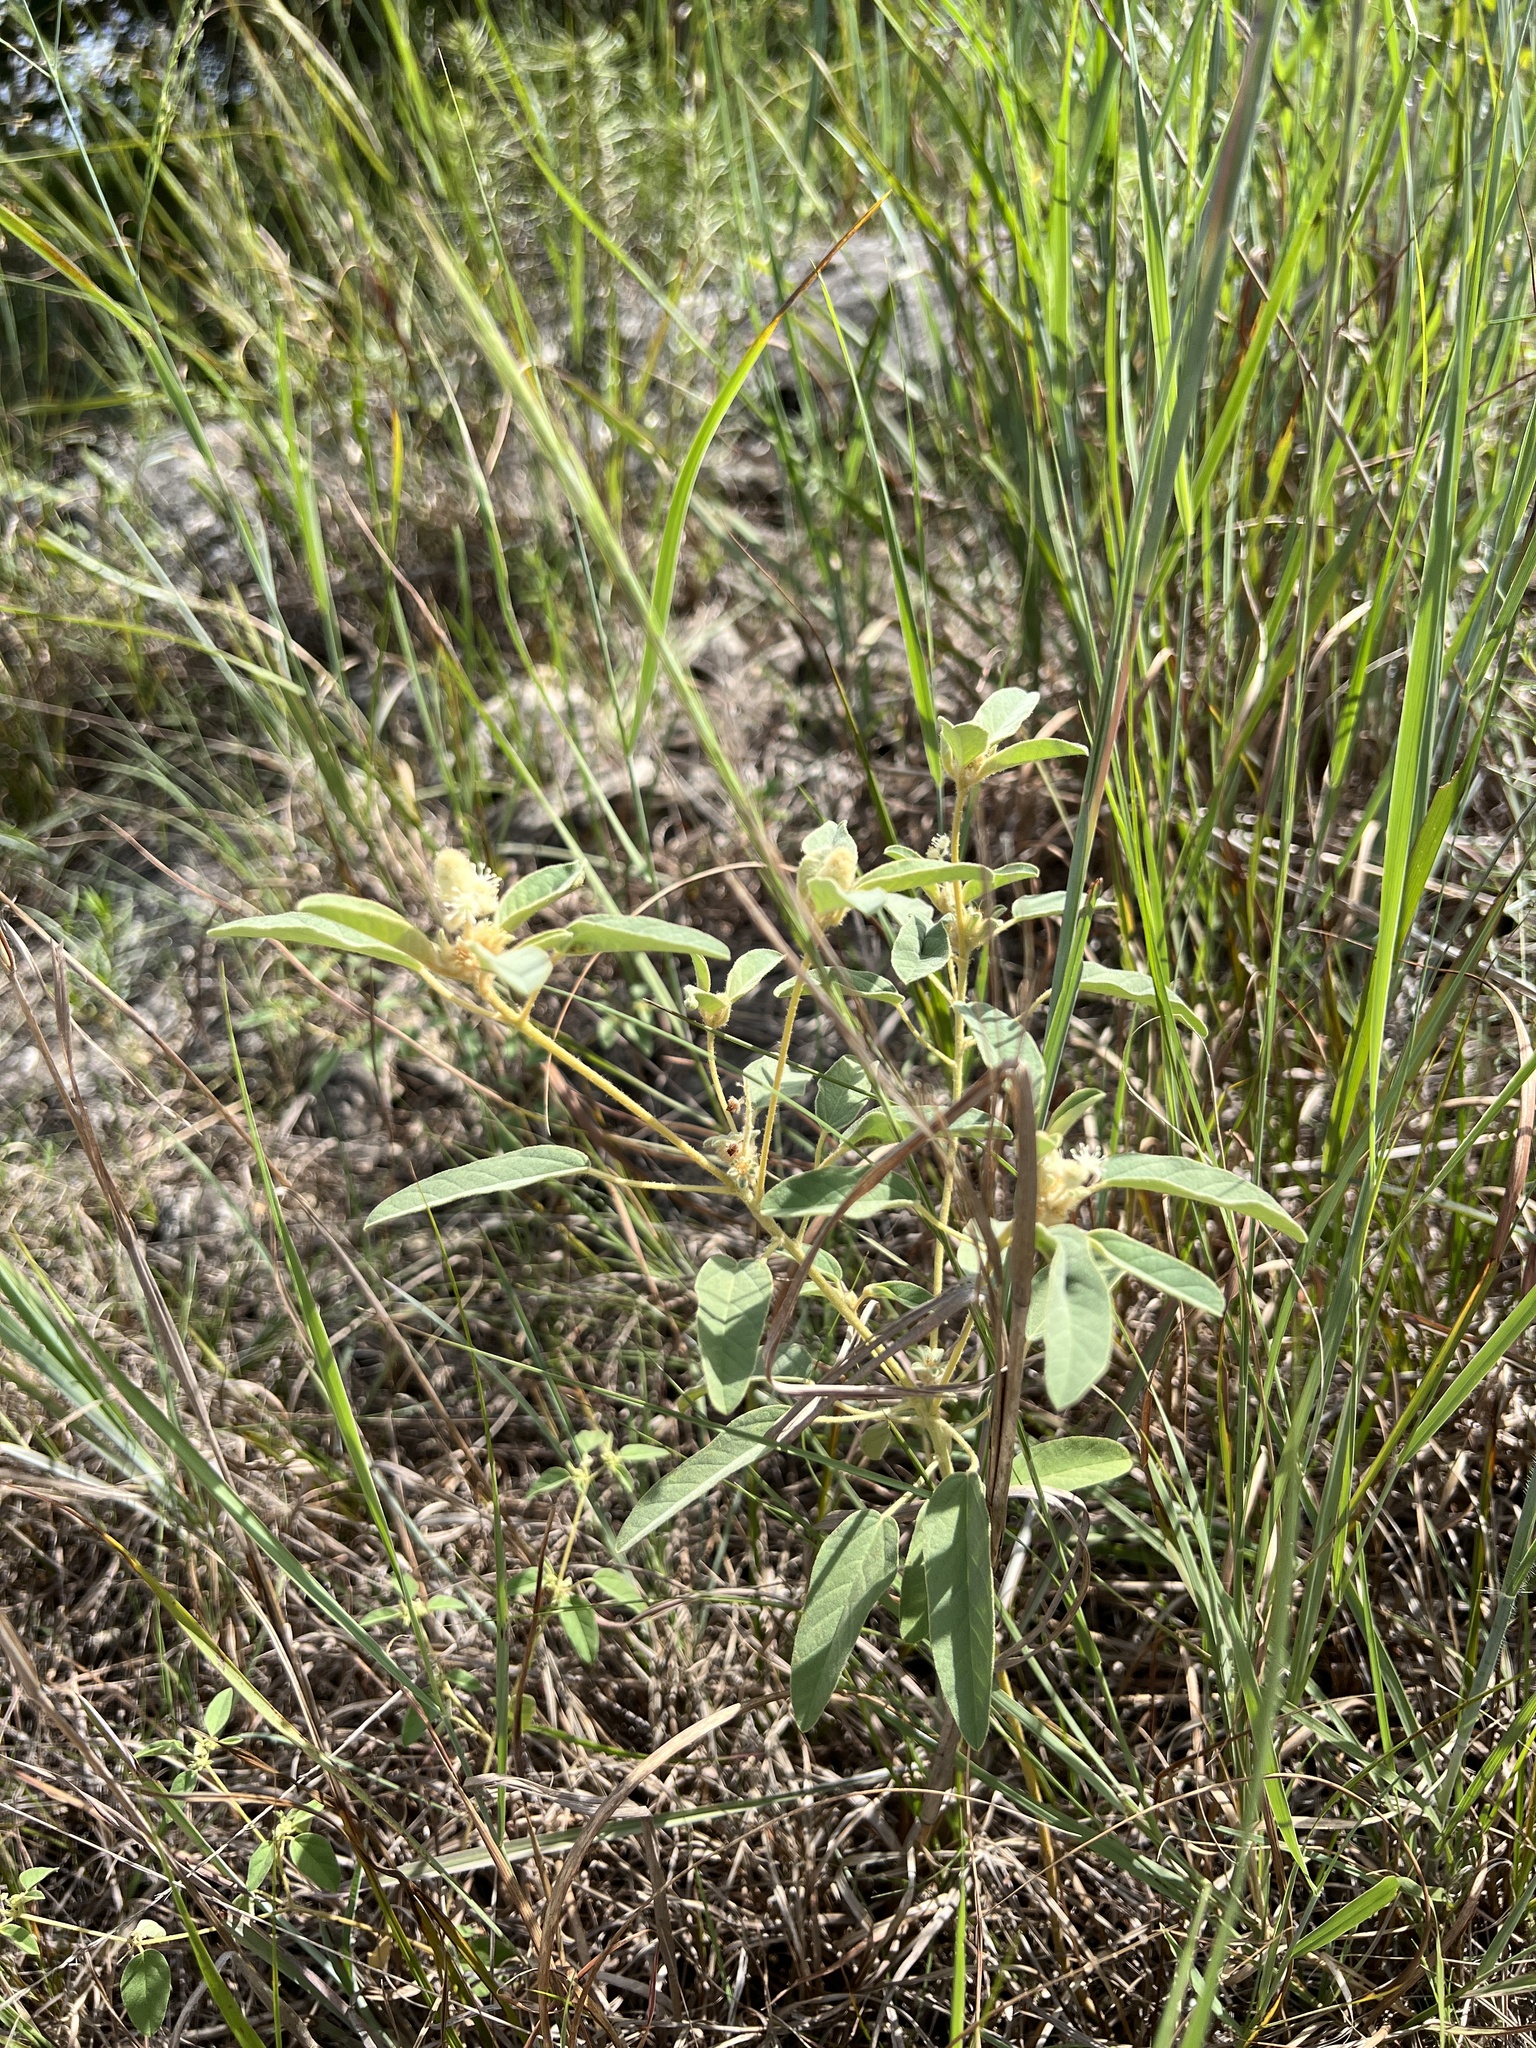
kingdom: Plantae
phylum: Tracheophyta
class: Magnoliopsida
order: Malpighiales
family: Euphorbiaceae
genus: Croton
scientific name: Croton capitatus
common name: Woolly croton
